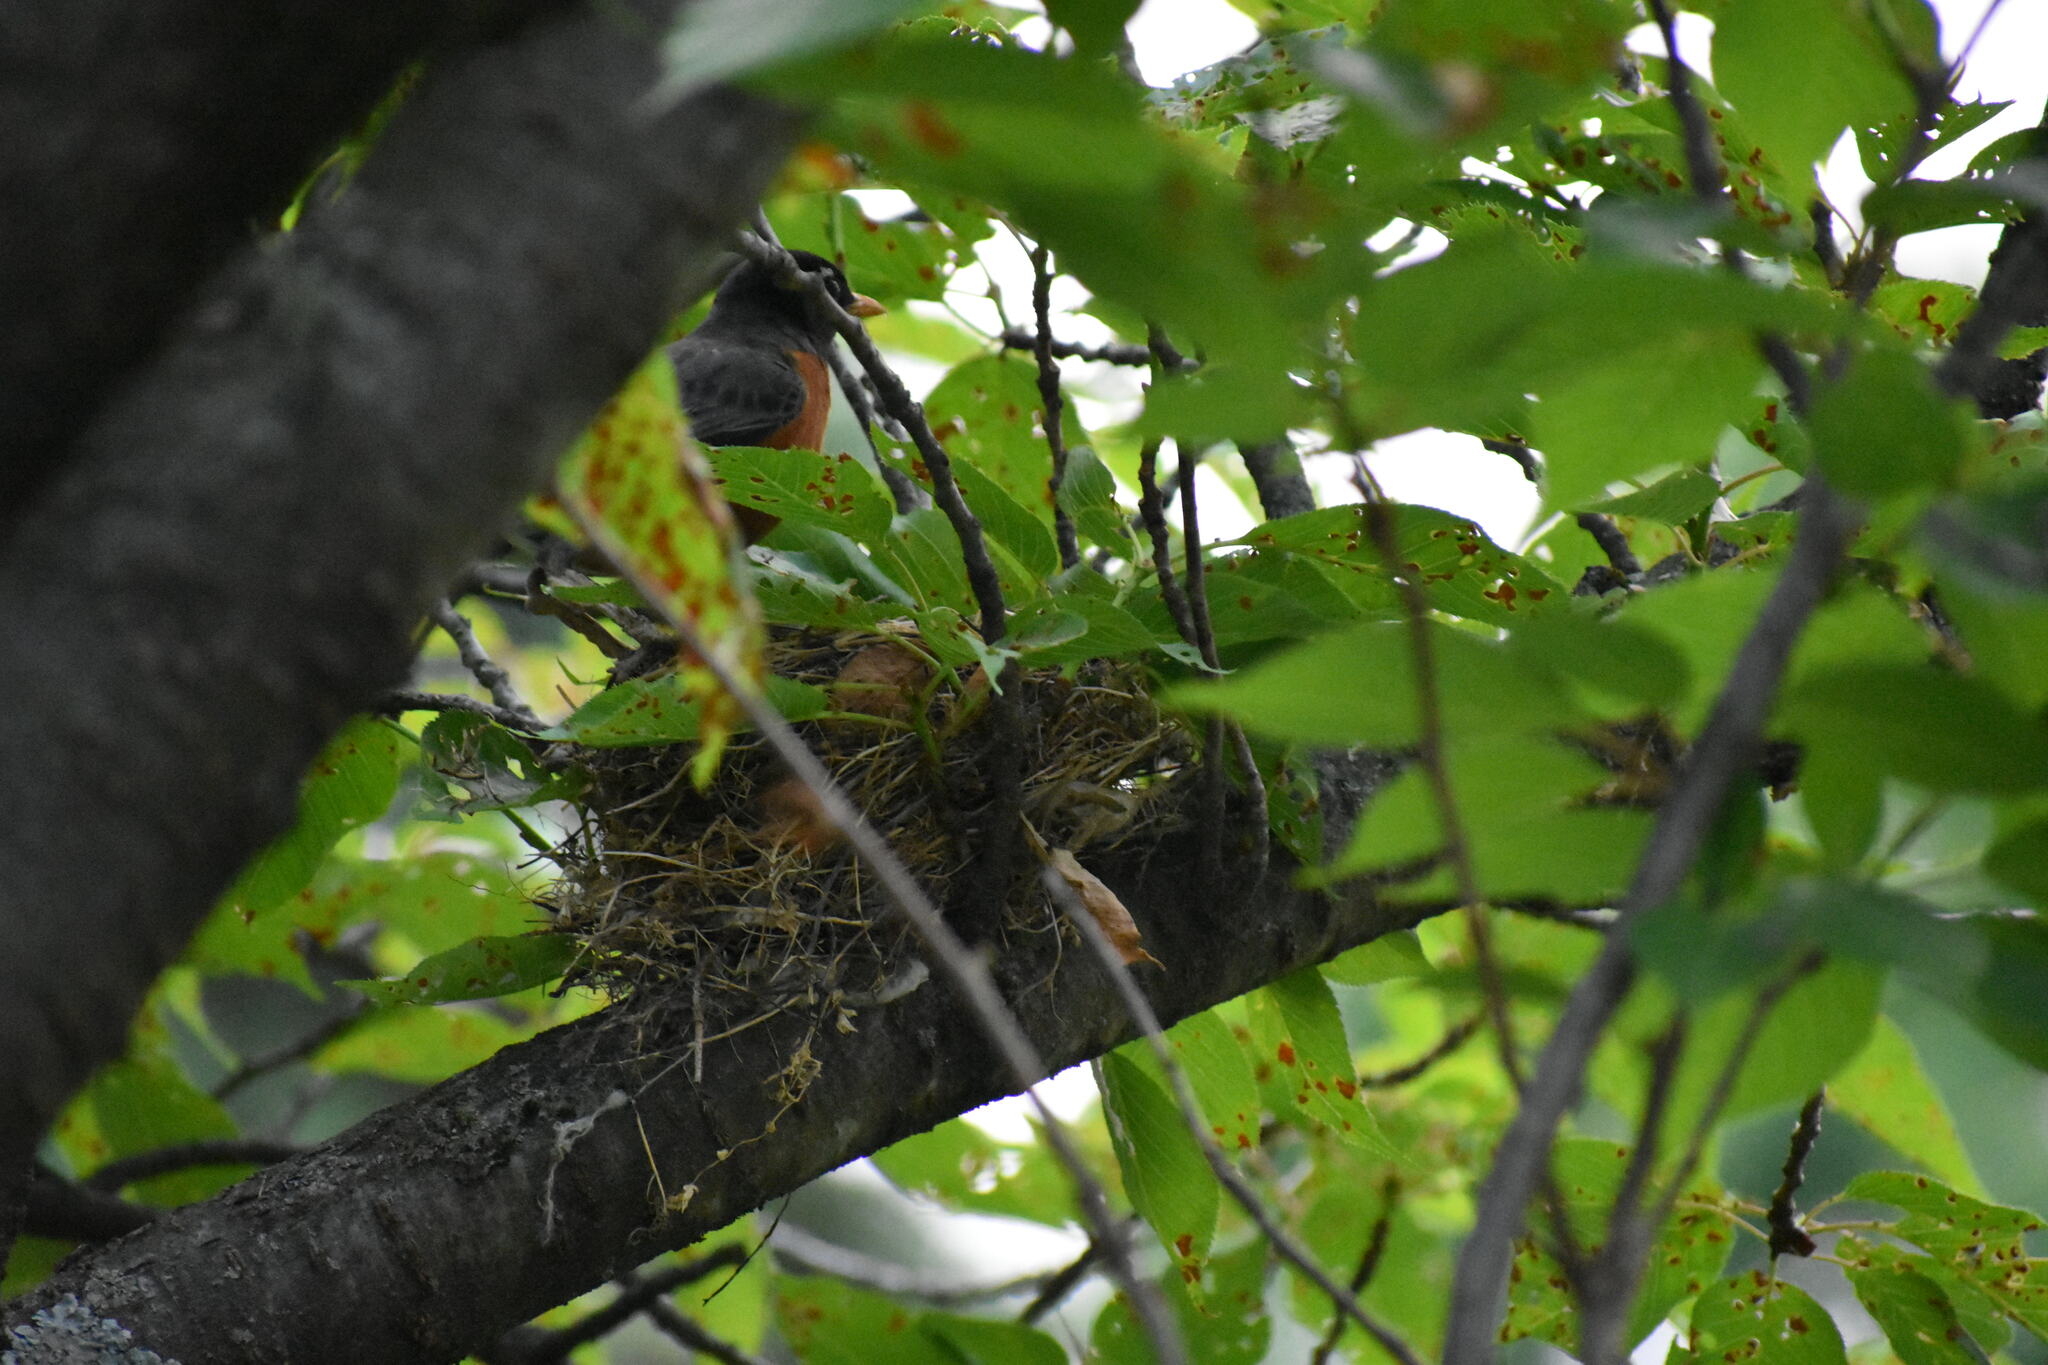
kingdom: Animalia
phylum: Chordata
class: Aves
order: Passeriformes
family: Turdidae
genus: Turdus
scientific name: Turdus migratorius
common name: American robin
